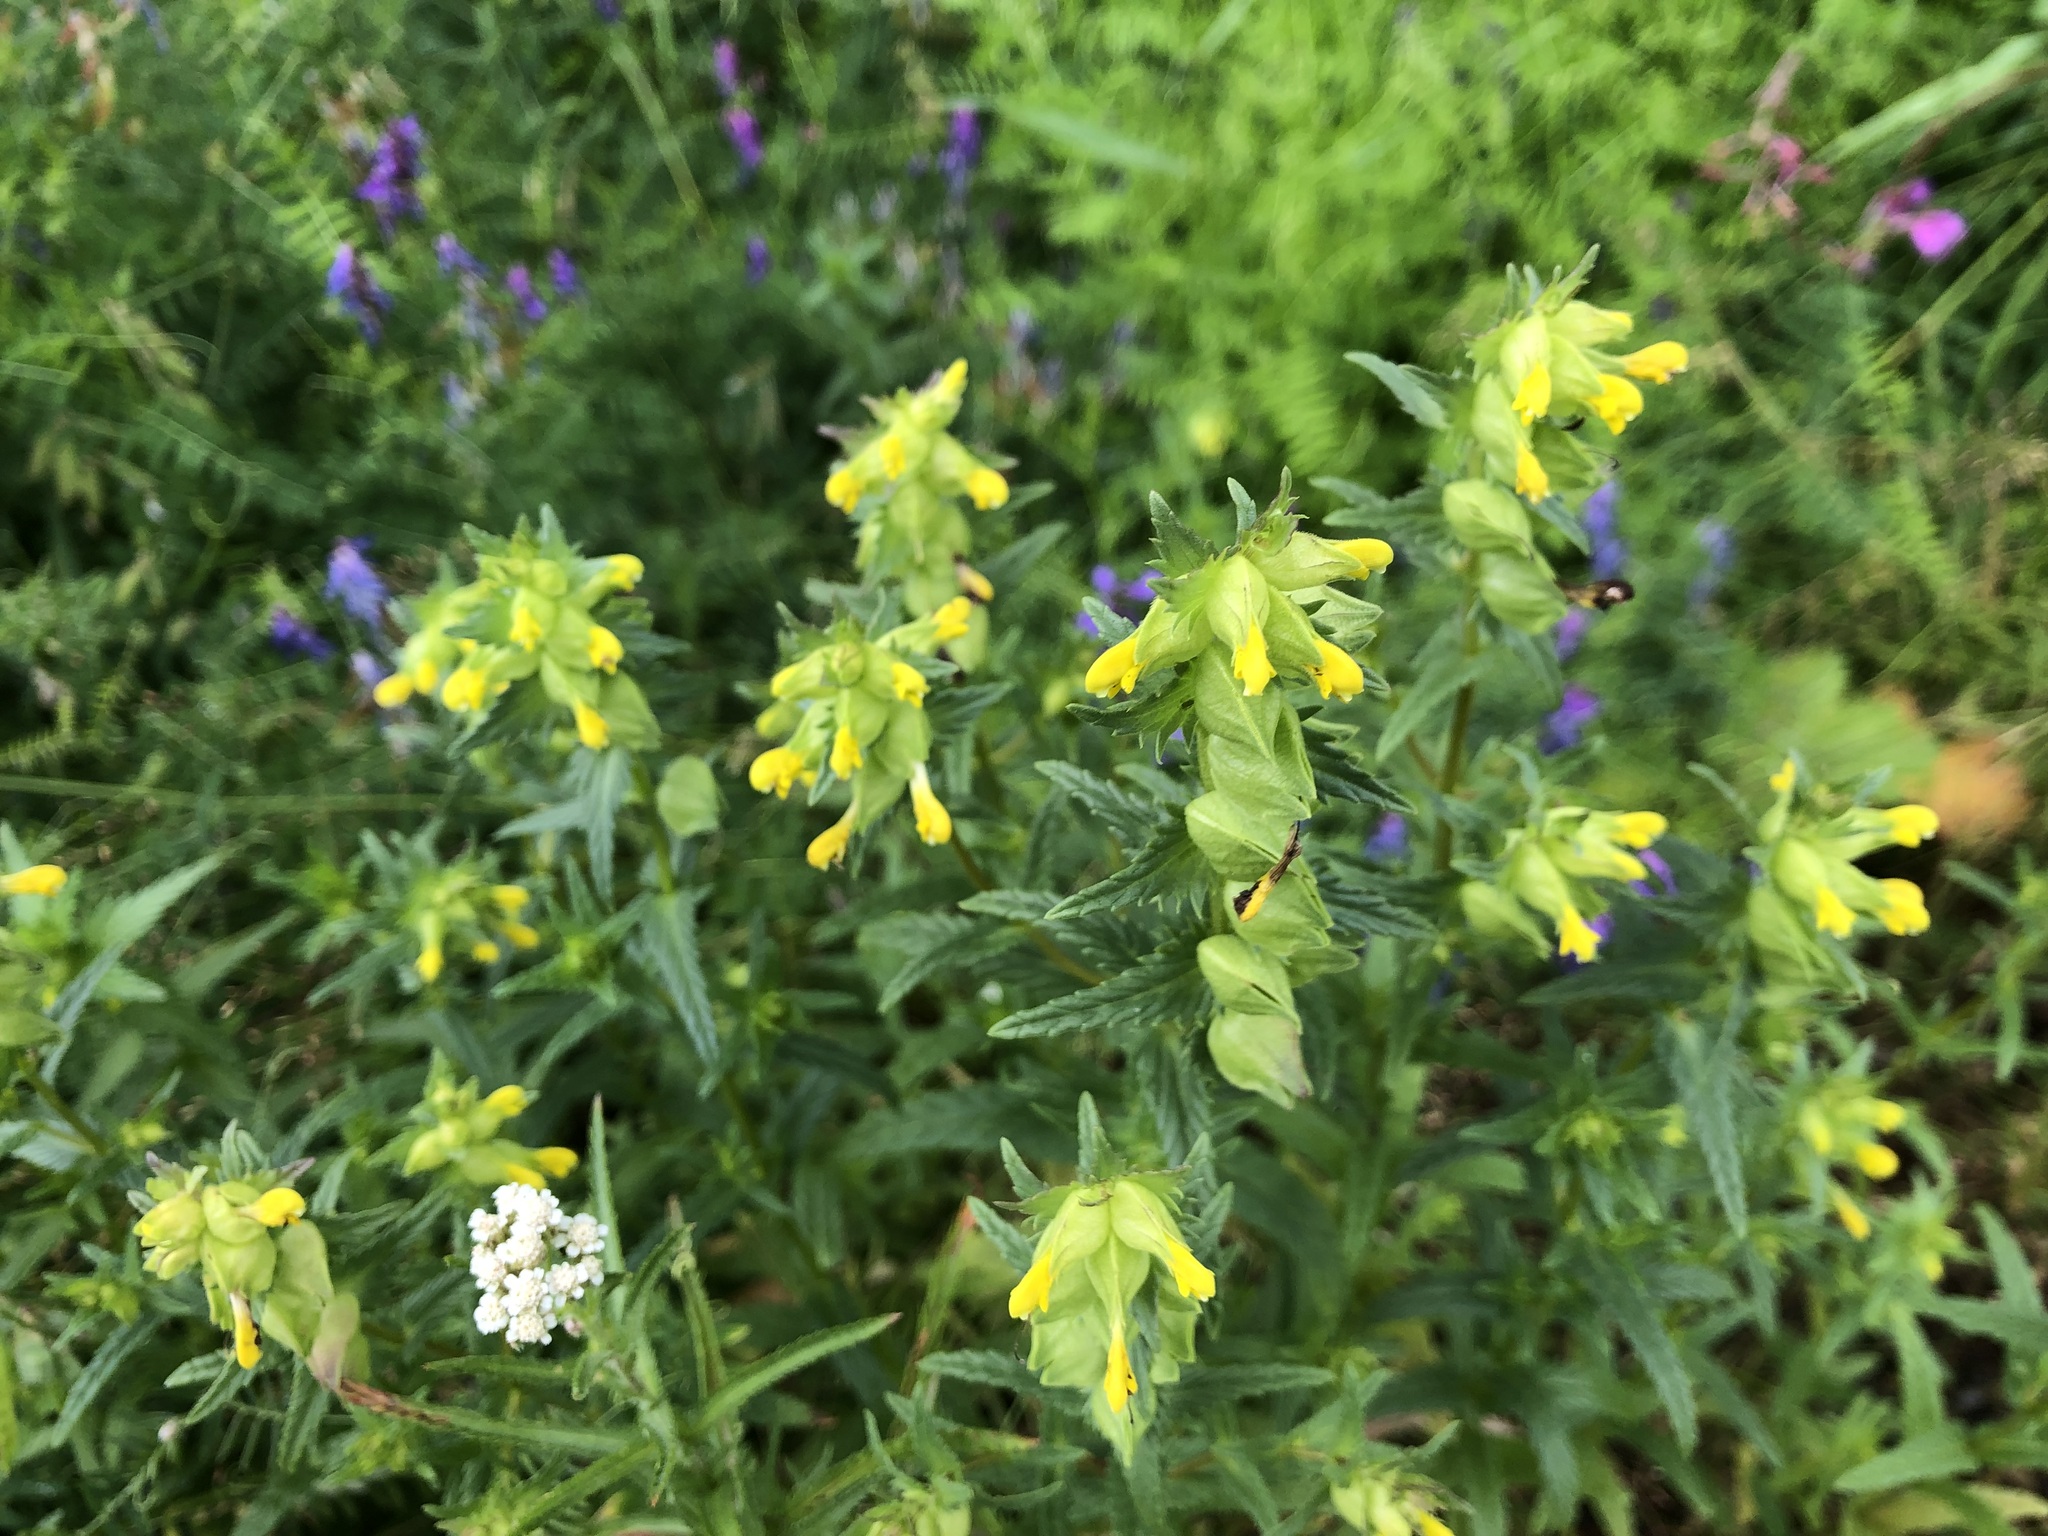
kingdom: Plantae
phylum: Tracheophyta
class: Magnoliopsida
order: Lamiales
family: Orobanchaceae
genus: Rhinanthus
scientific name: Rhinanthus minor
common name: Yellow-rattle
